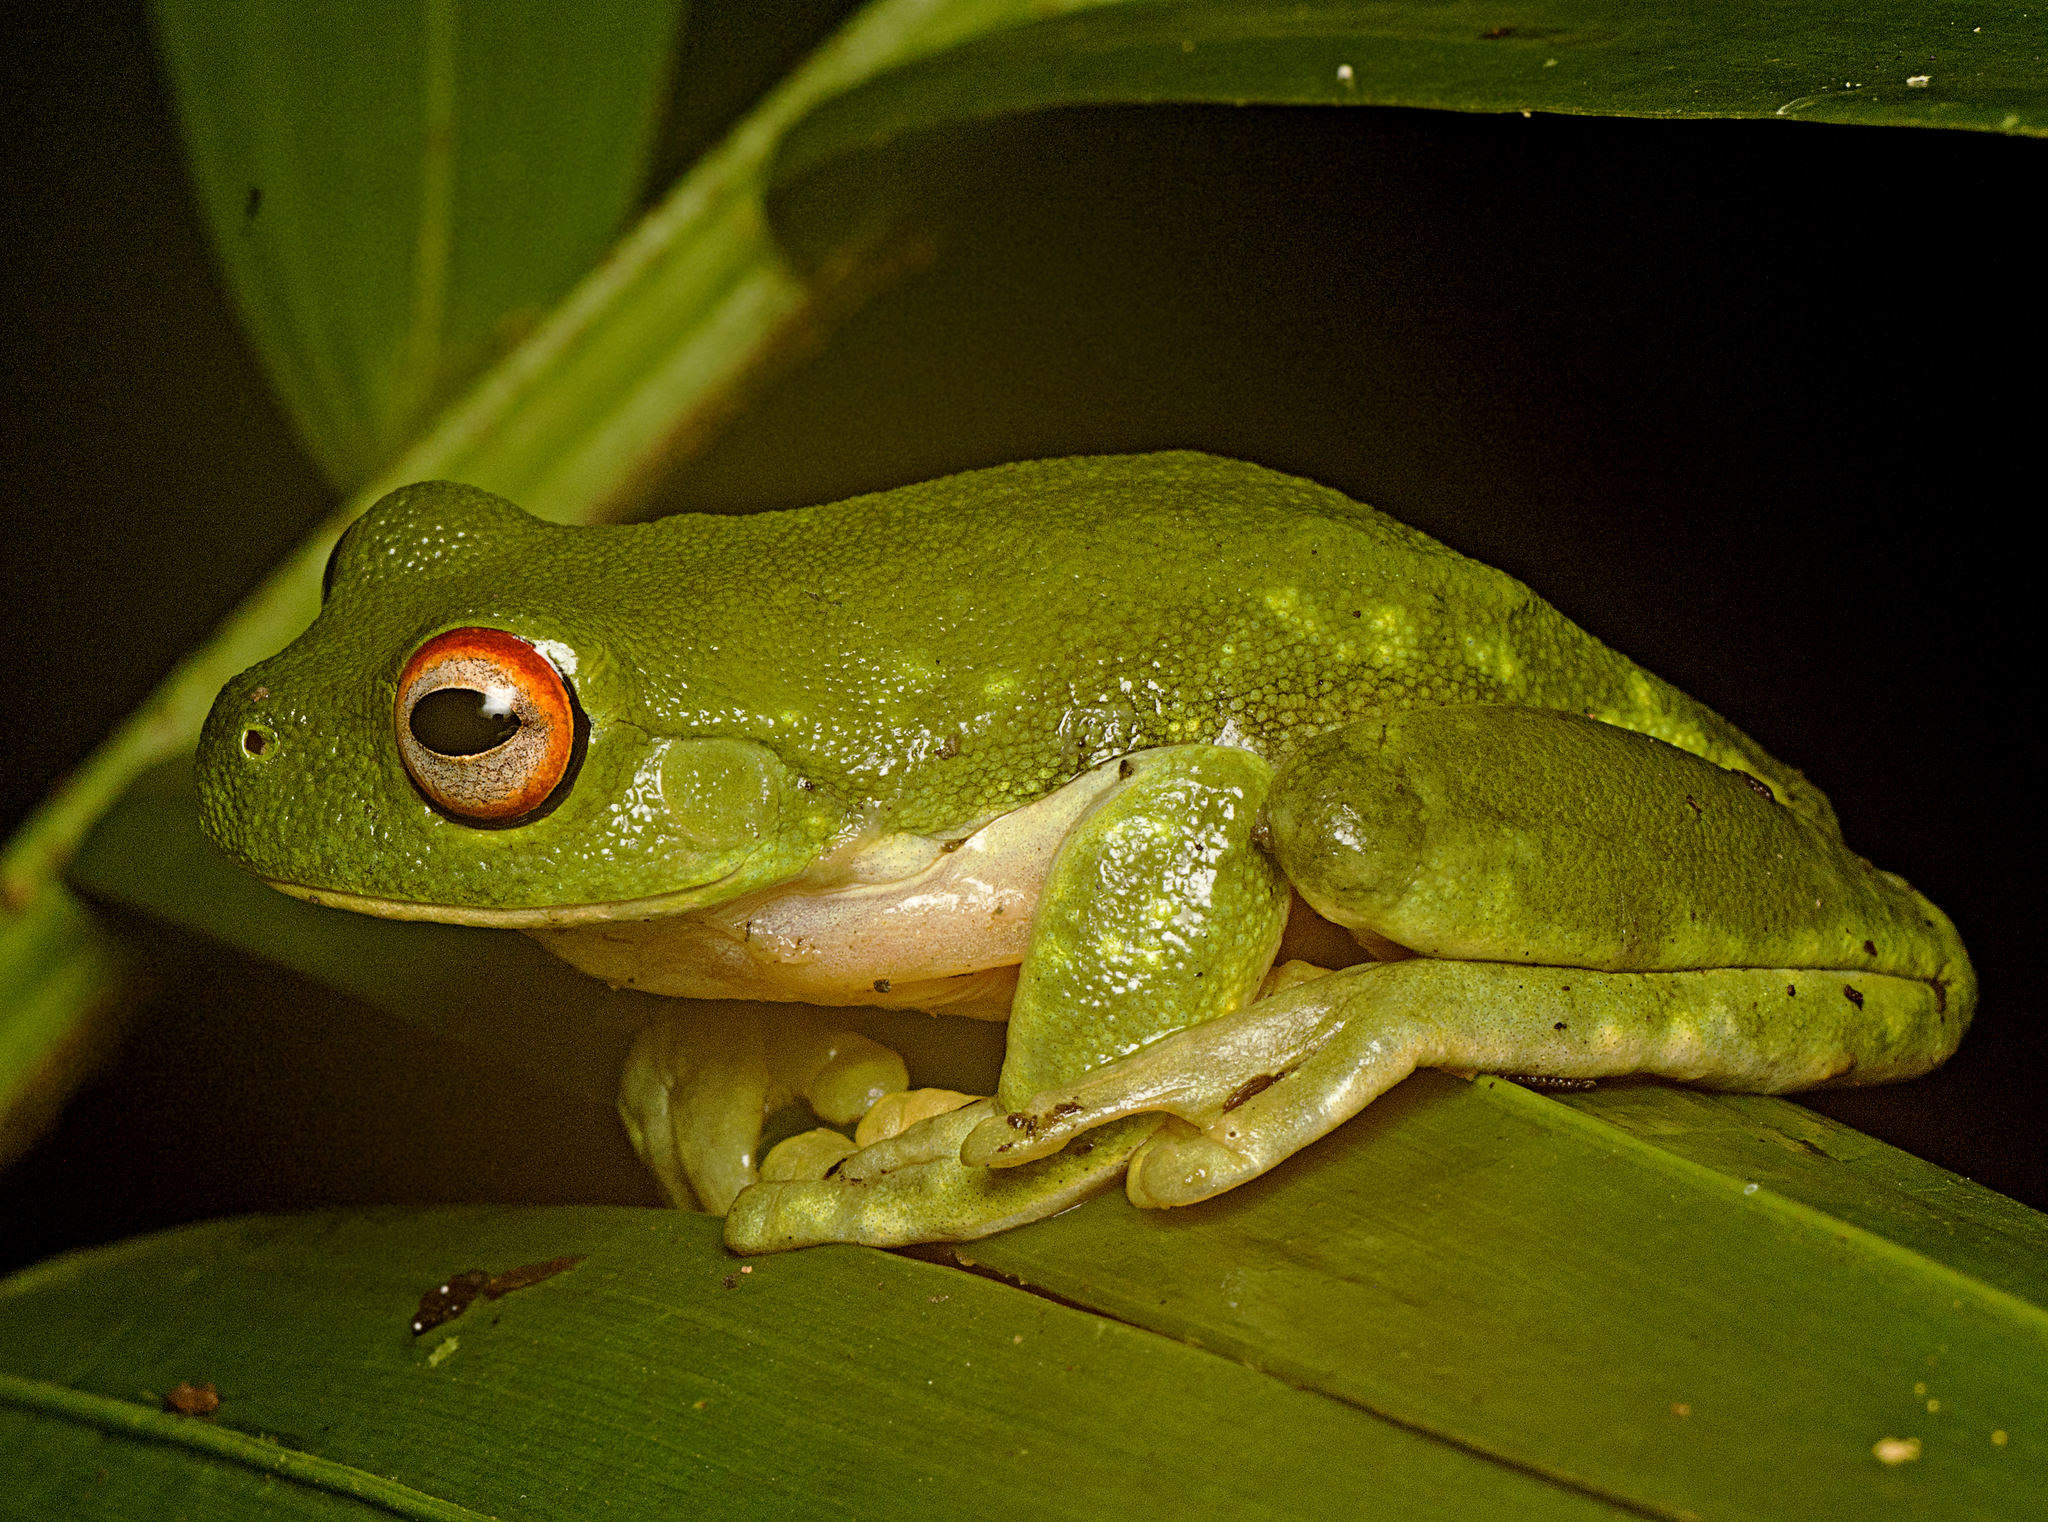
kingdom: Animalia
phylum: Chordata
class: Amphibia
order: Anura
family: Pelodryadidae
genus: Ranoidea
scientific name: Ranoidea chloris
